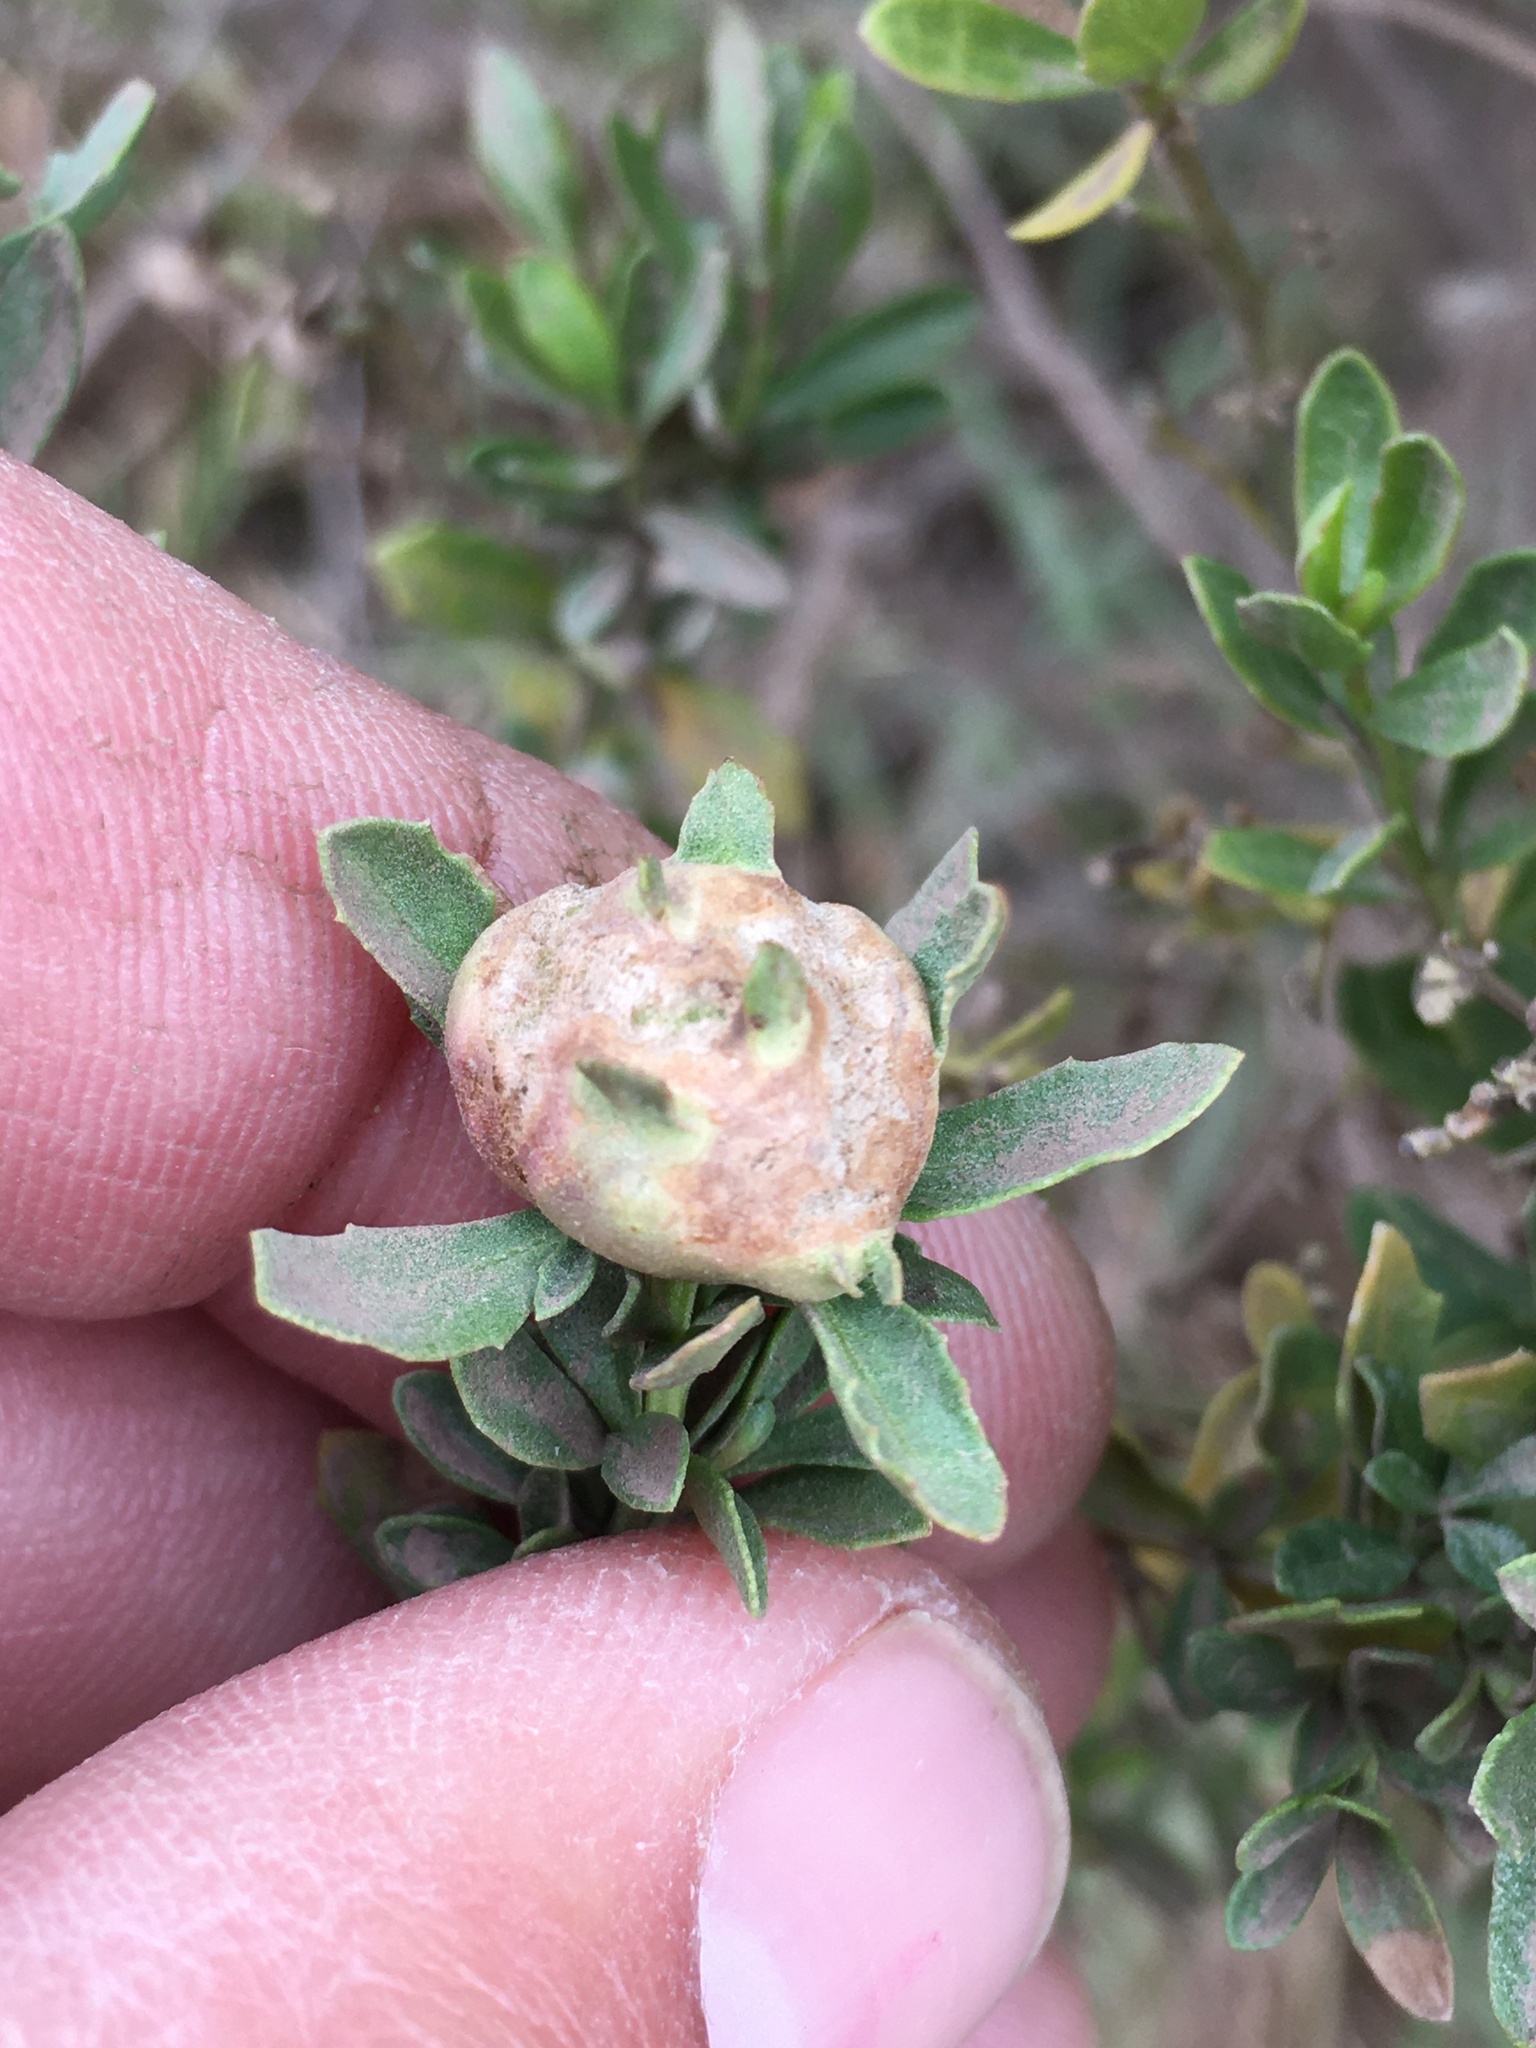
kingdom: Animalia
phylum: Arthropoda
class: Insecta
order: Diptera
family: Cecidomyiidae
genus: Rhopalomyia
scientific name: Rhopalomyia californica
